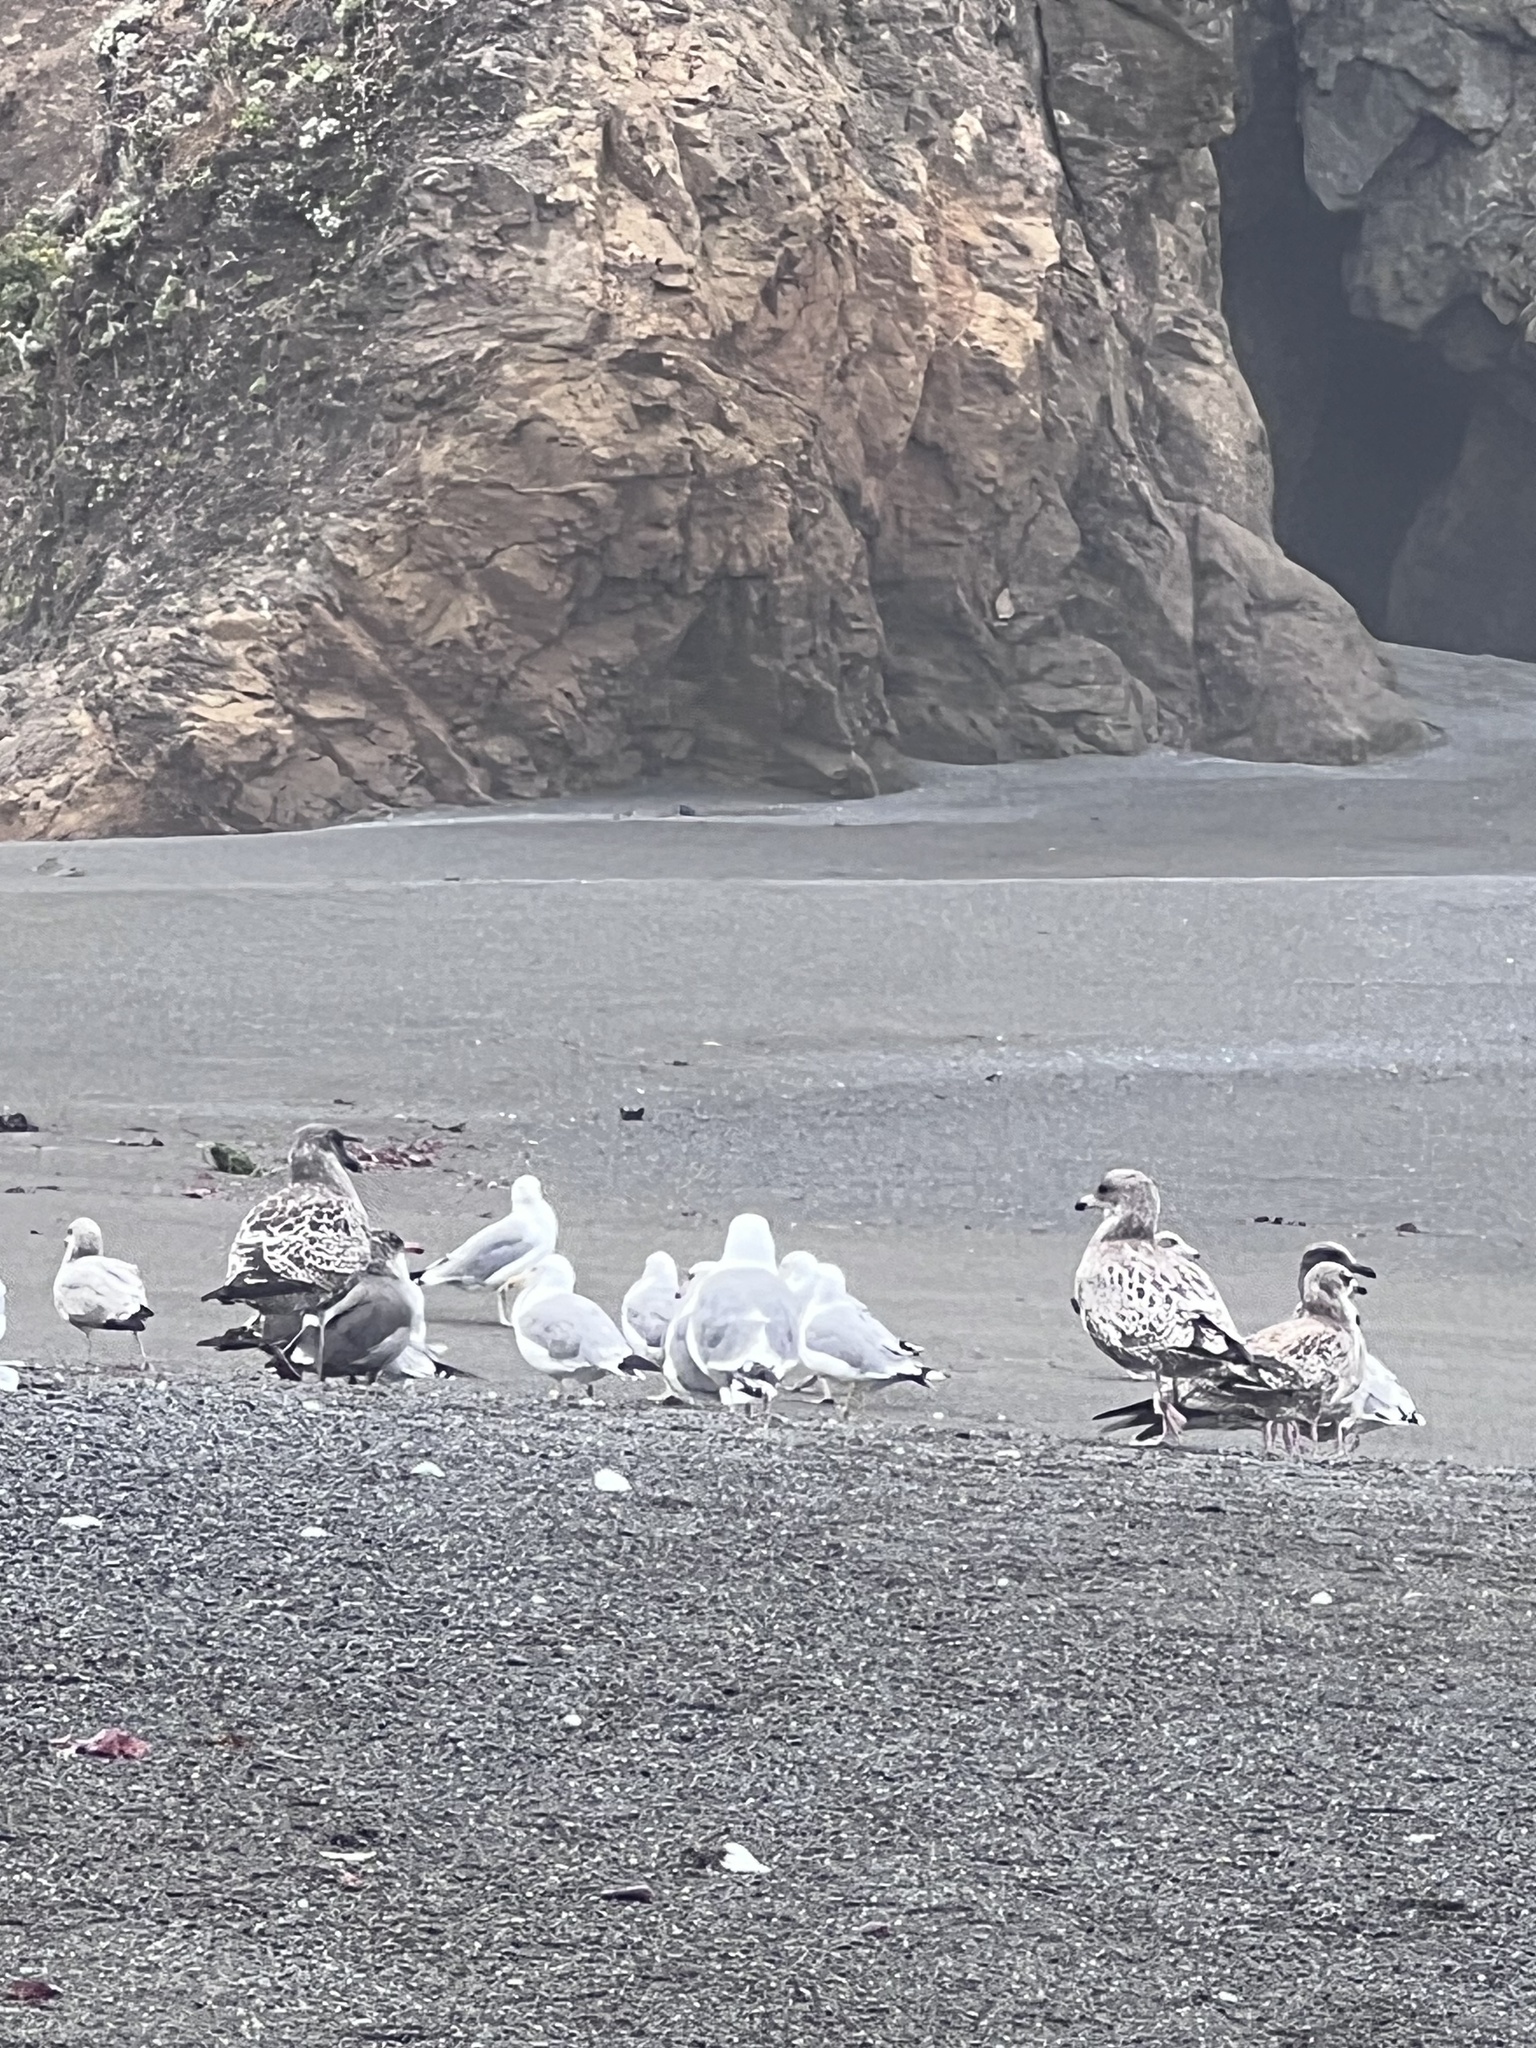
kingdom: Animalia
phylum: Chordata
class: Aves
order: Charadriiformes
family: Laridae
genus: Larus
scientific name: Larus occidentalis
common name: Western gull
